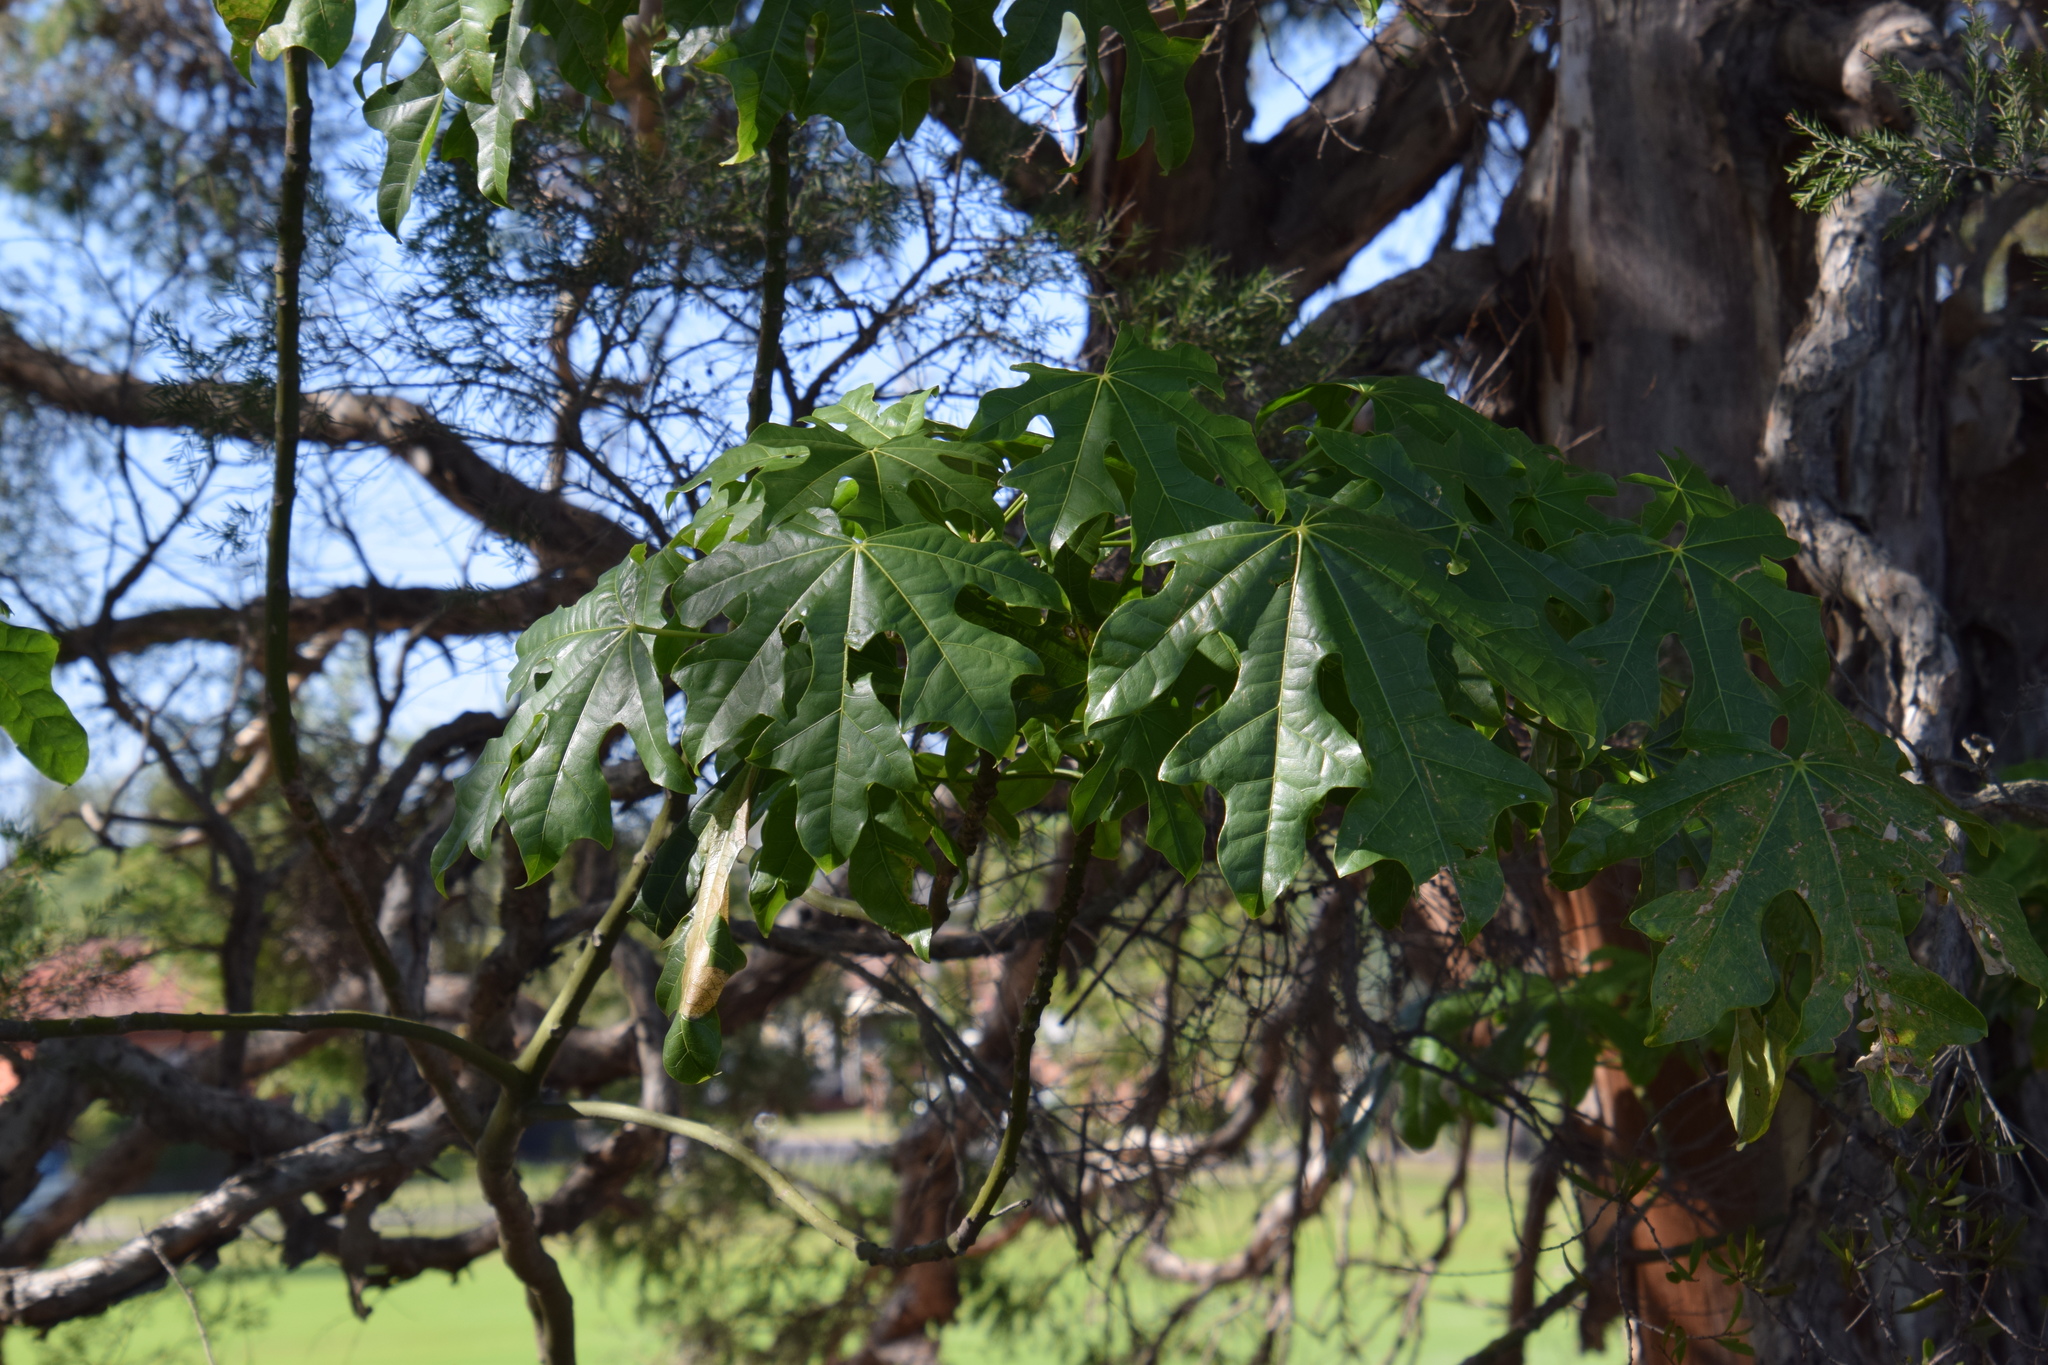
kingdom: Plantae
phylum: Tracheophyta
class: Magnoliopsida
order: Malvales
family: Malvaceae
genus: Brachychiton
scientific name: Brachychiton acerifolius
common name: Illawarra flame tree
